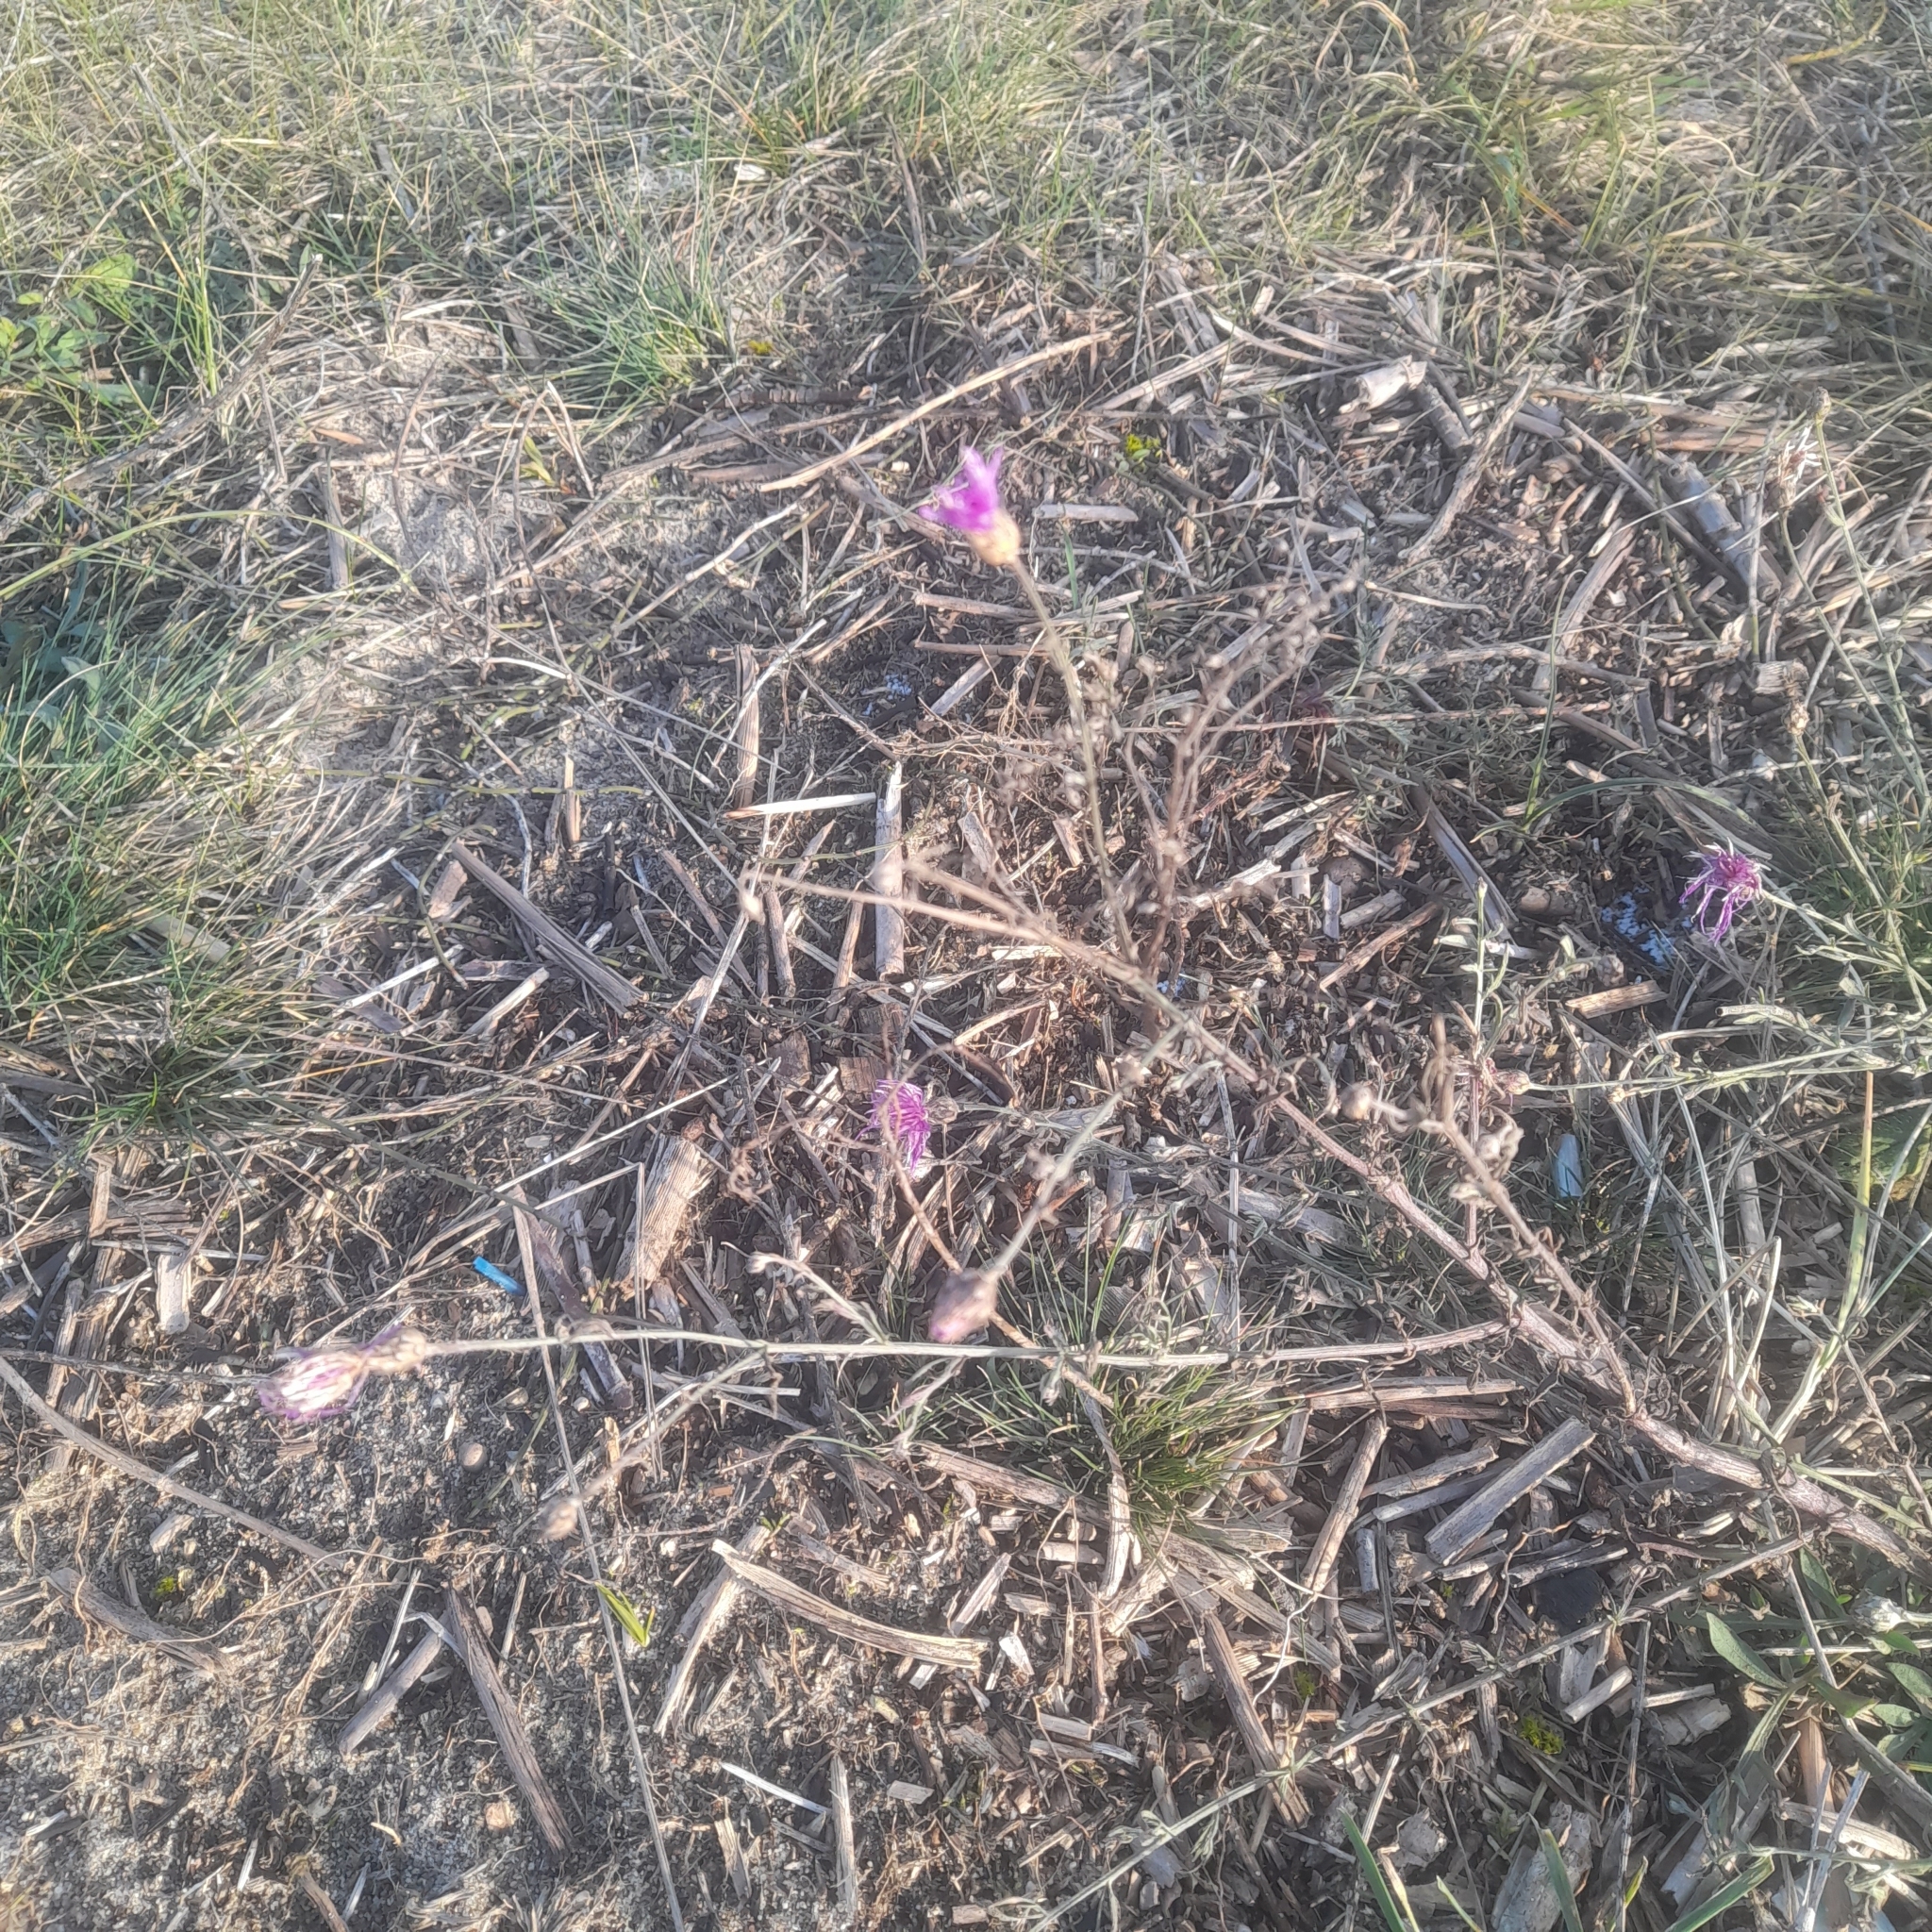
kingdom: Plantae
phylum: Tracheophyta
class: Magnoliopsida
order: Asterales
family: Asteraceae
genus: Centaurea
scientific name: Centaurea stoebe
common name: Spotted knapweed
